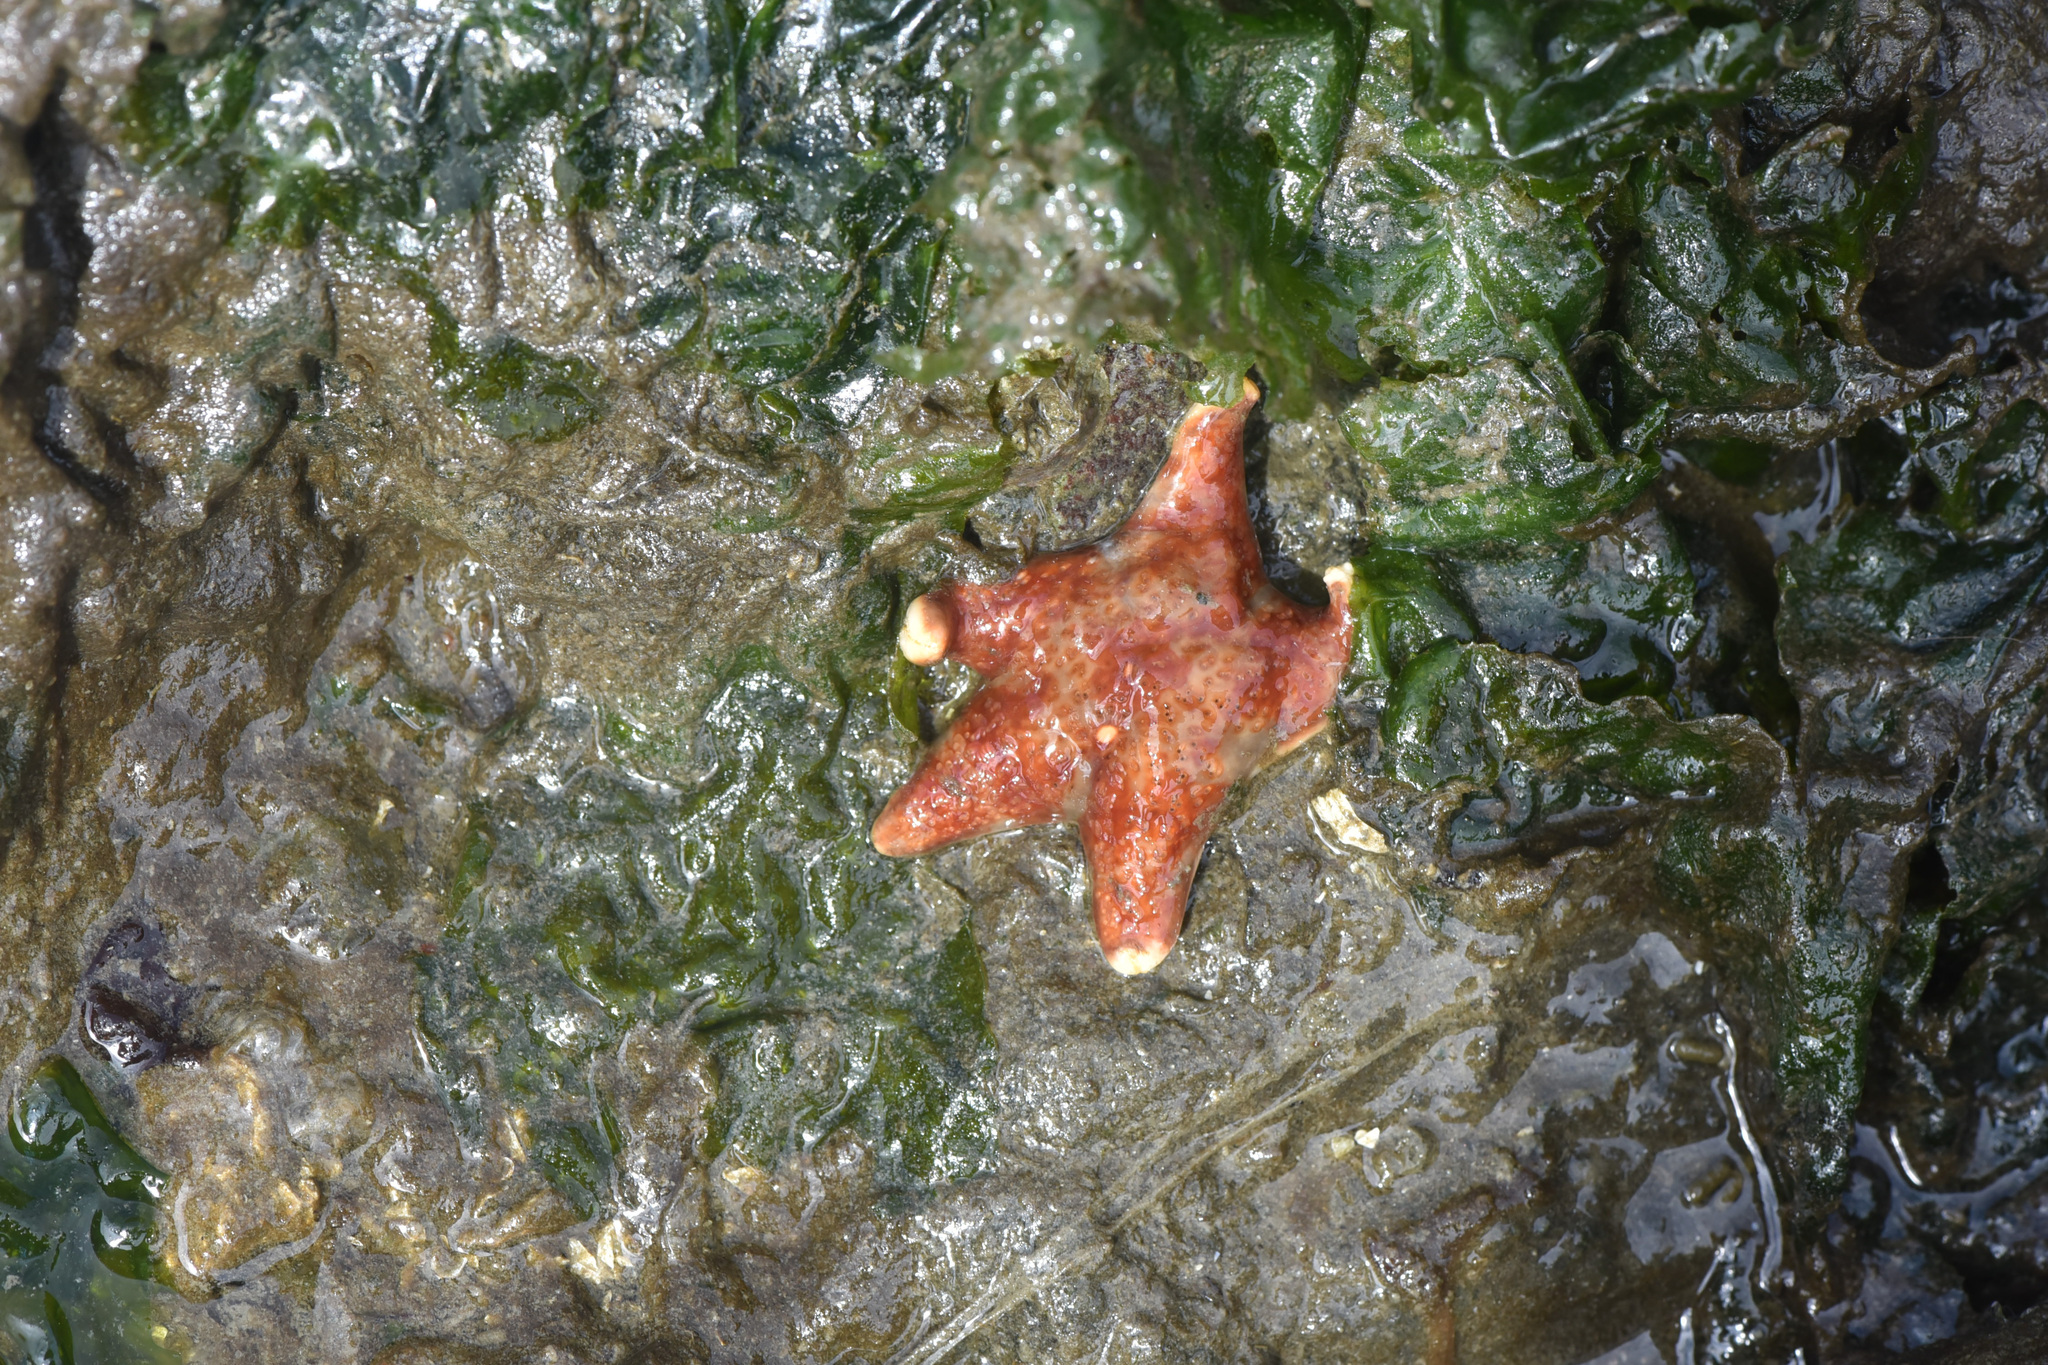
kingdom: Animalia
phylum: Echinodermata
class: Asteroidea
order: Valvatida
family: Asteropseidae
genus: Dermasterias
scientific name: Dermasterias imbricata
